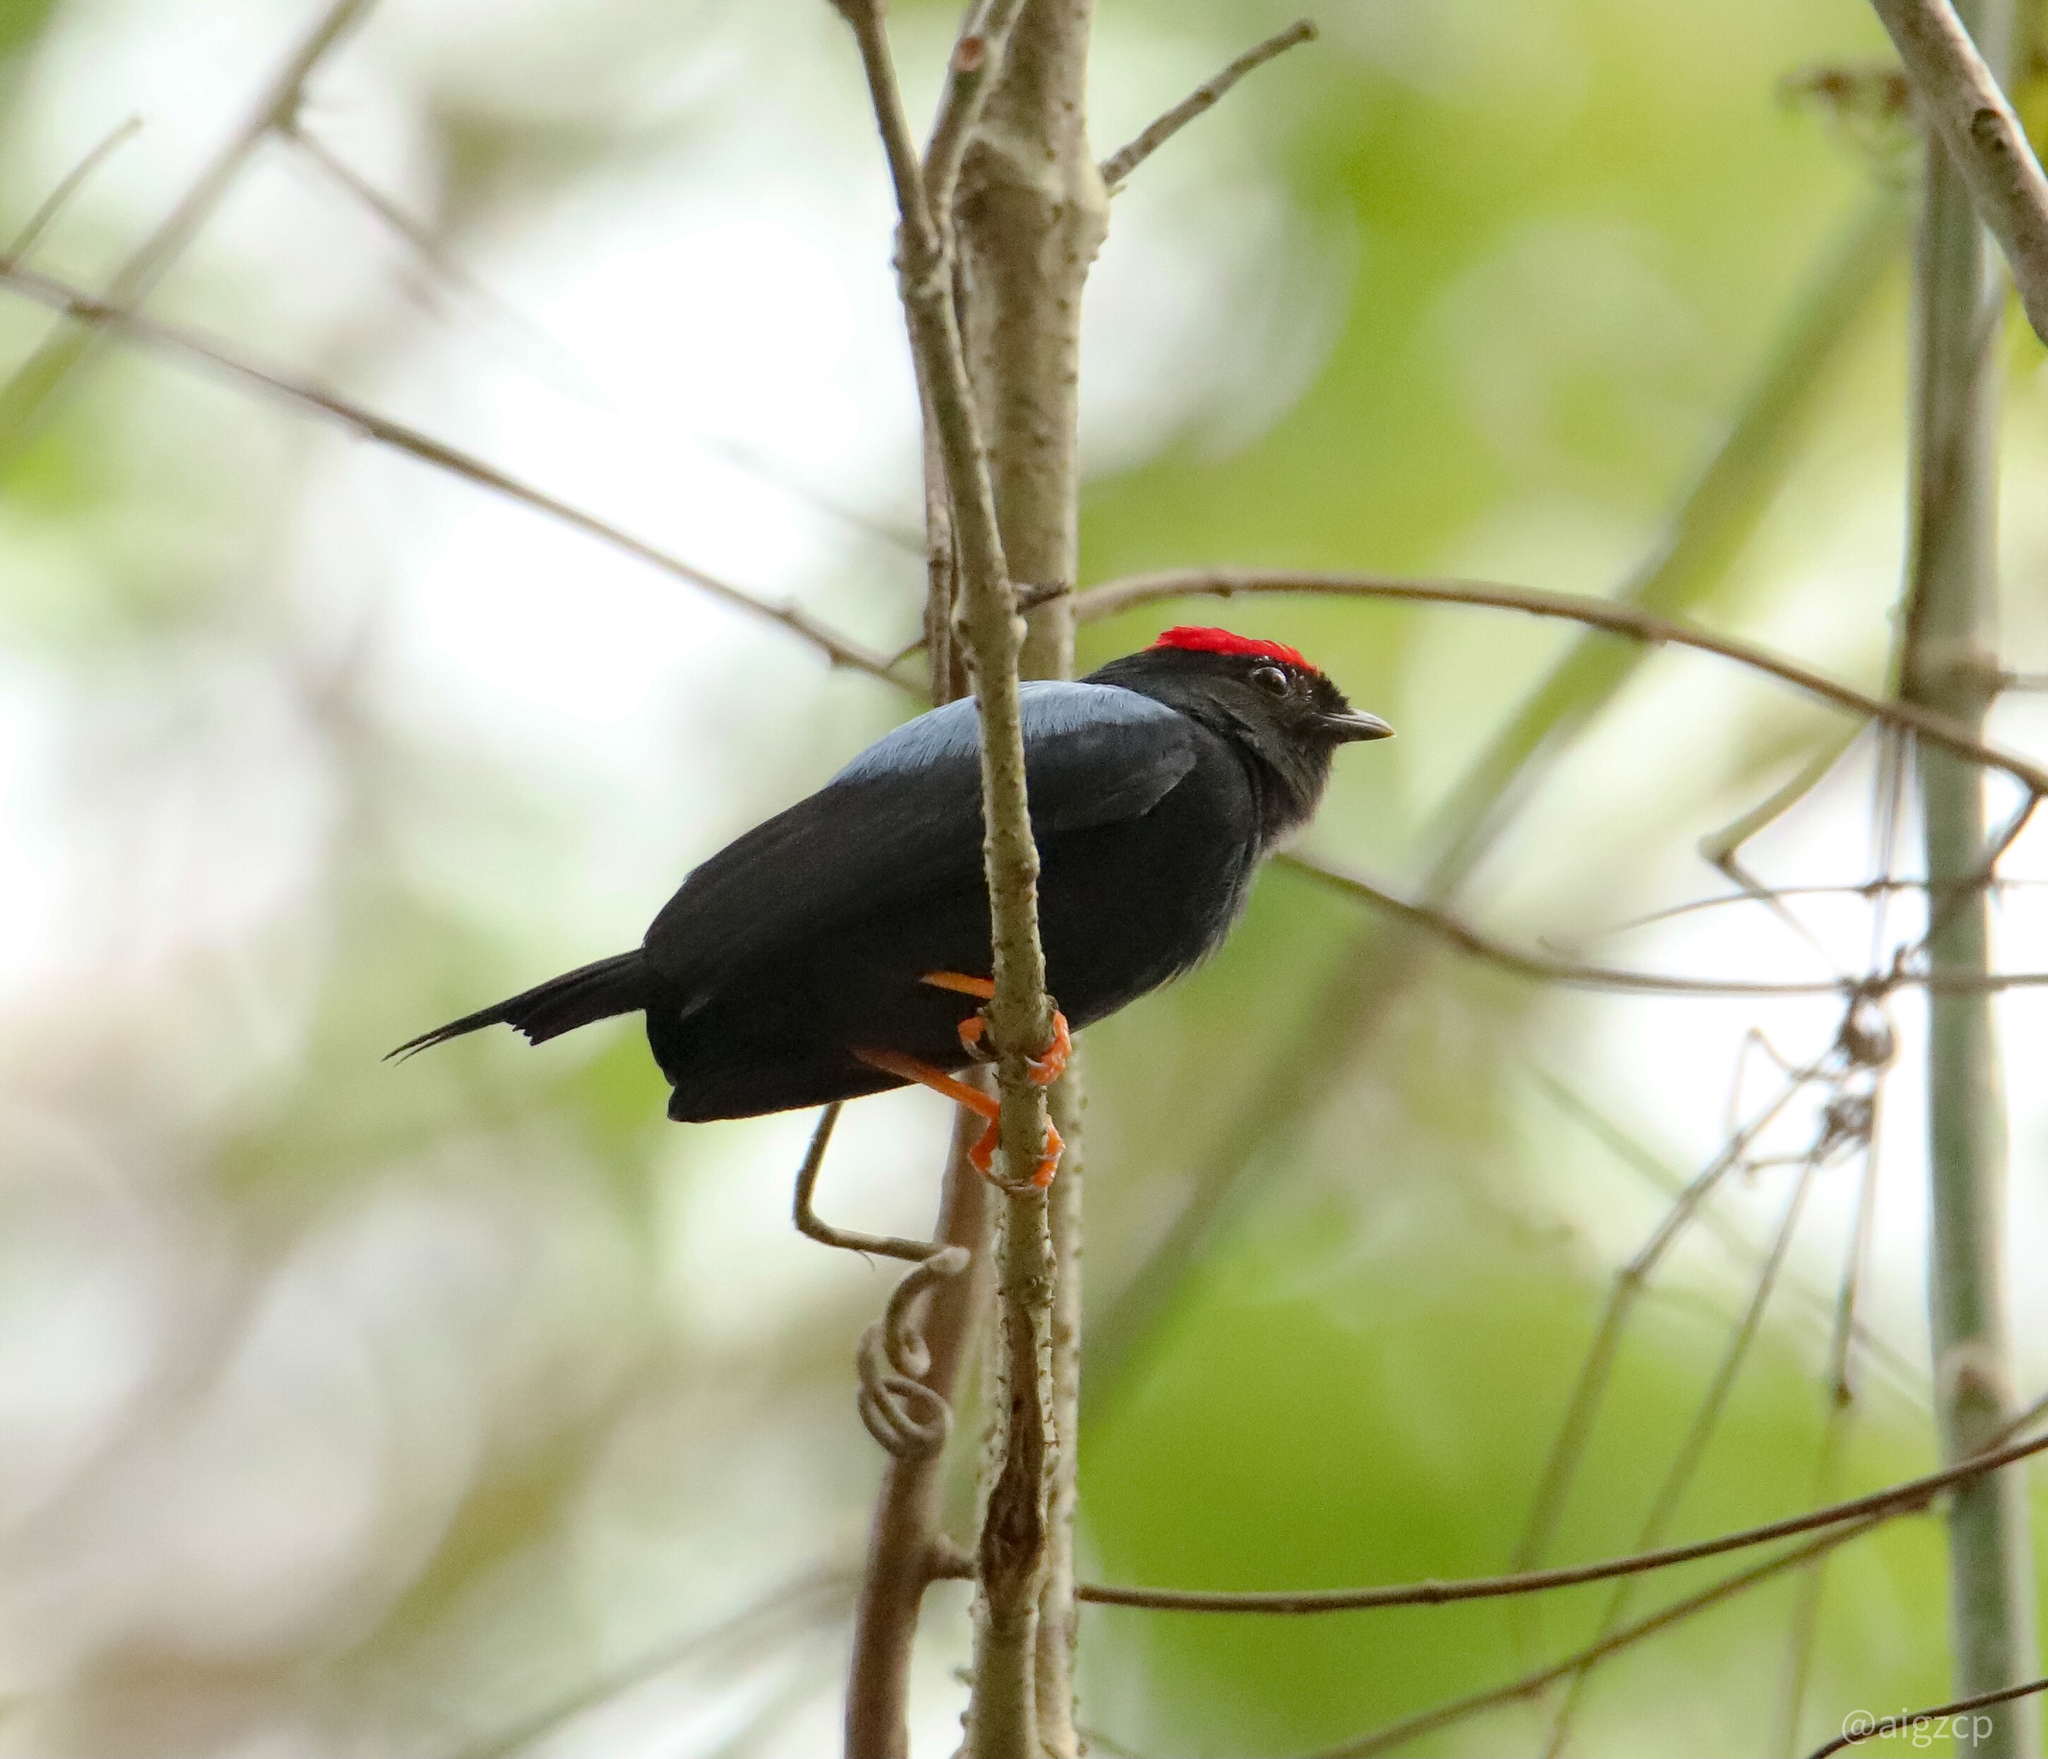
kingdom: Animalia
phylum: Chordata
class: Aves
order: Passeriformes
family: Pipridae
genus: Chiroxiphia
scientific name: Chiroxiphia lanceolata
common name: Lance-tailed manakin
